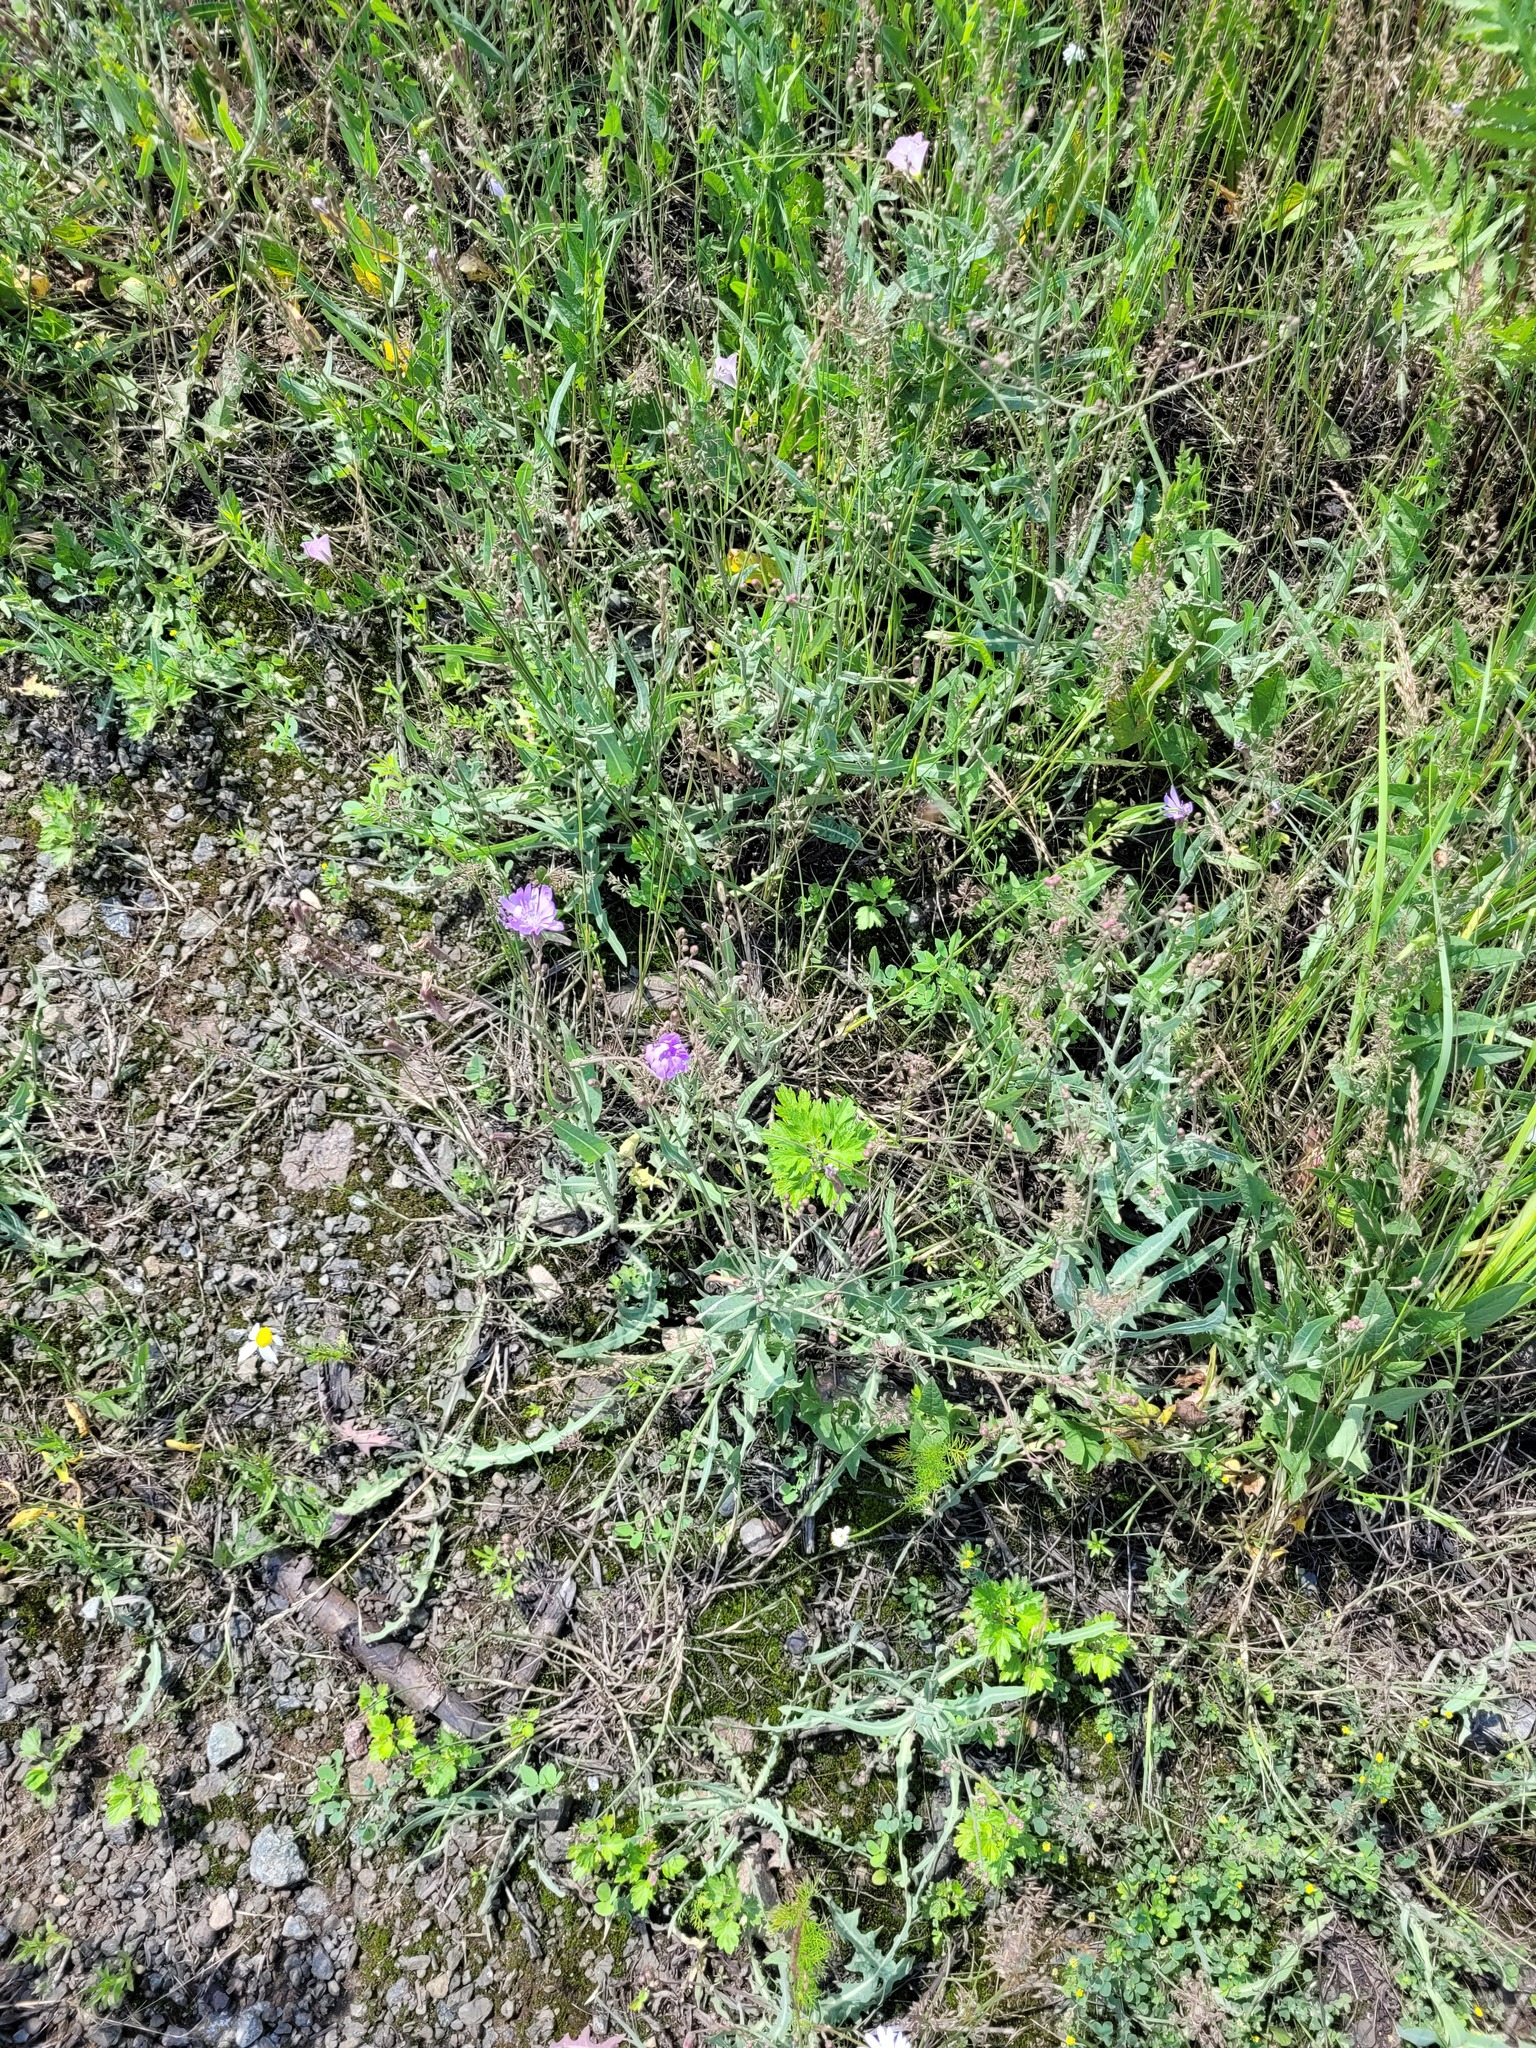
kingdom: Plantae
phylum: Tracheophyta
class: Magnoliopsida
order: Asterales
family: Asteraceae
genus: Lactuca
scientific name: Lactuca tatarica
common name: Blue lettuce
